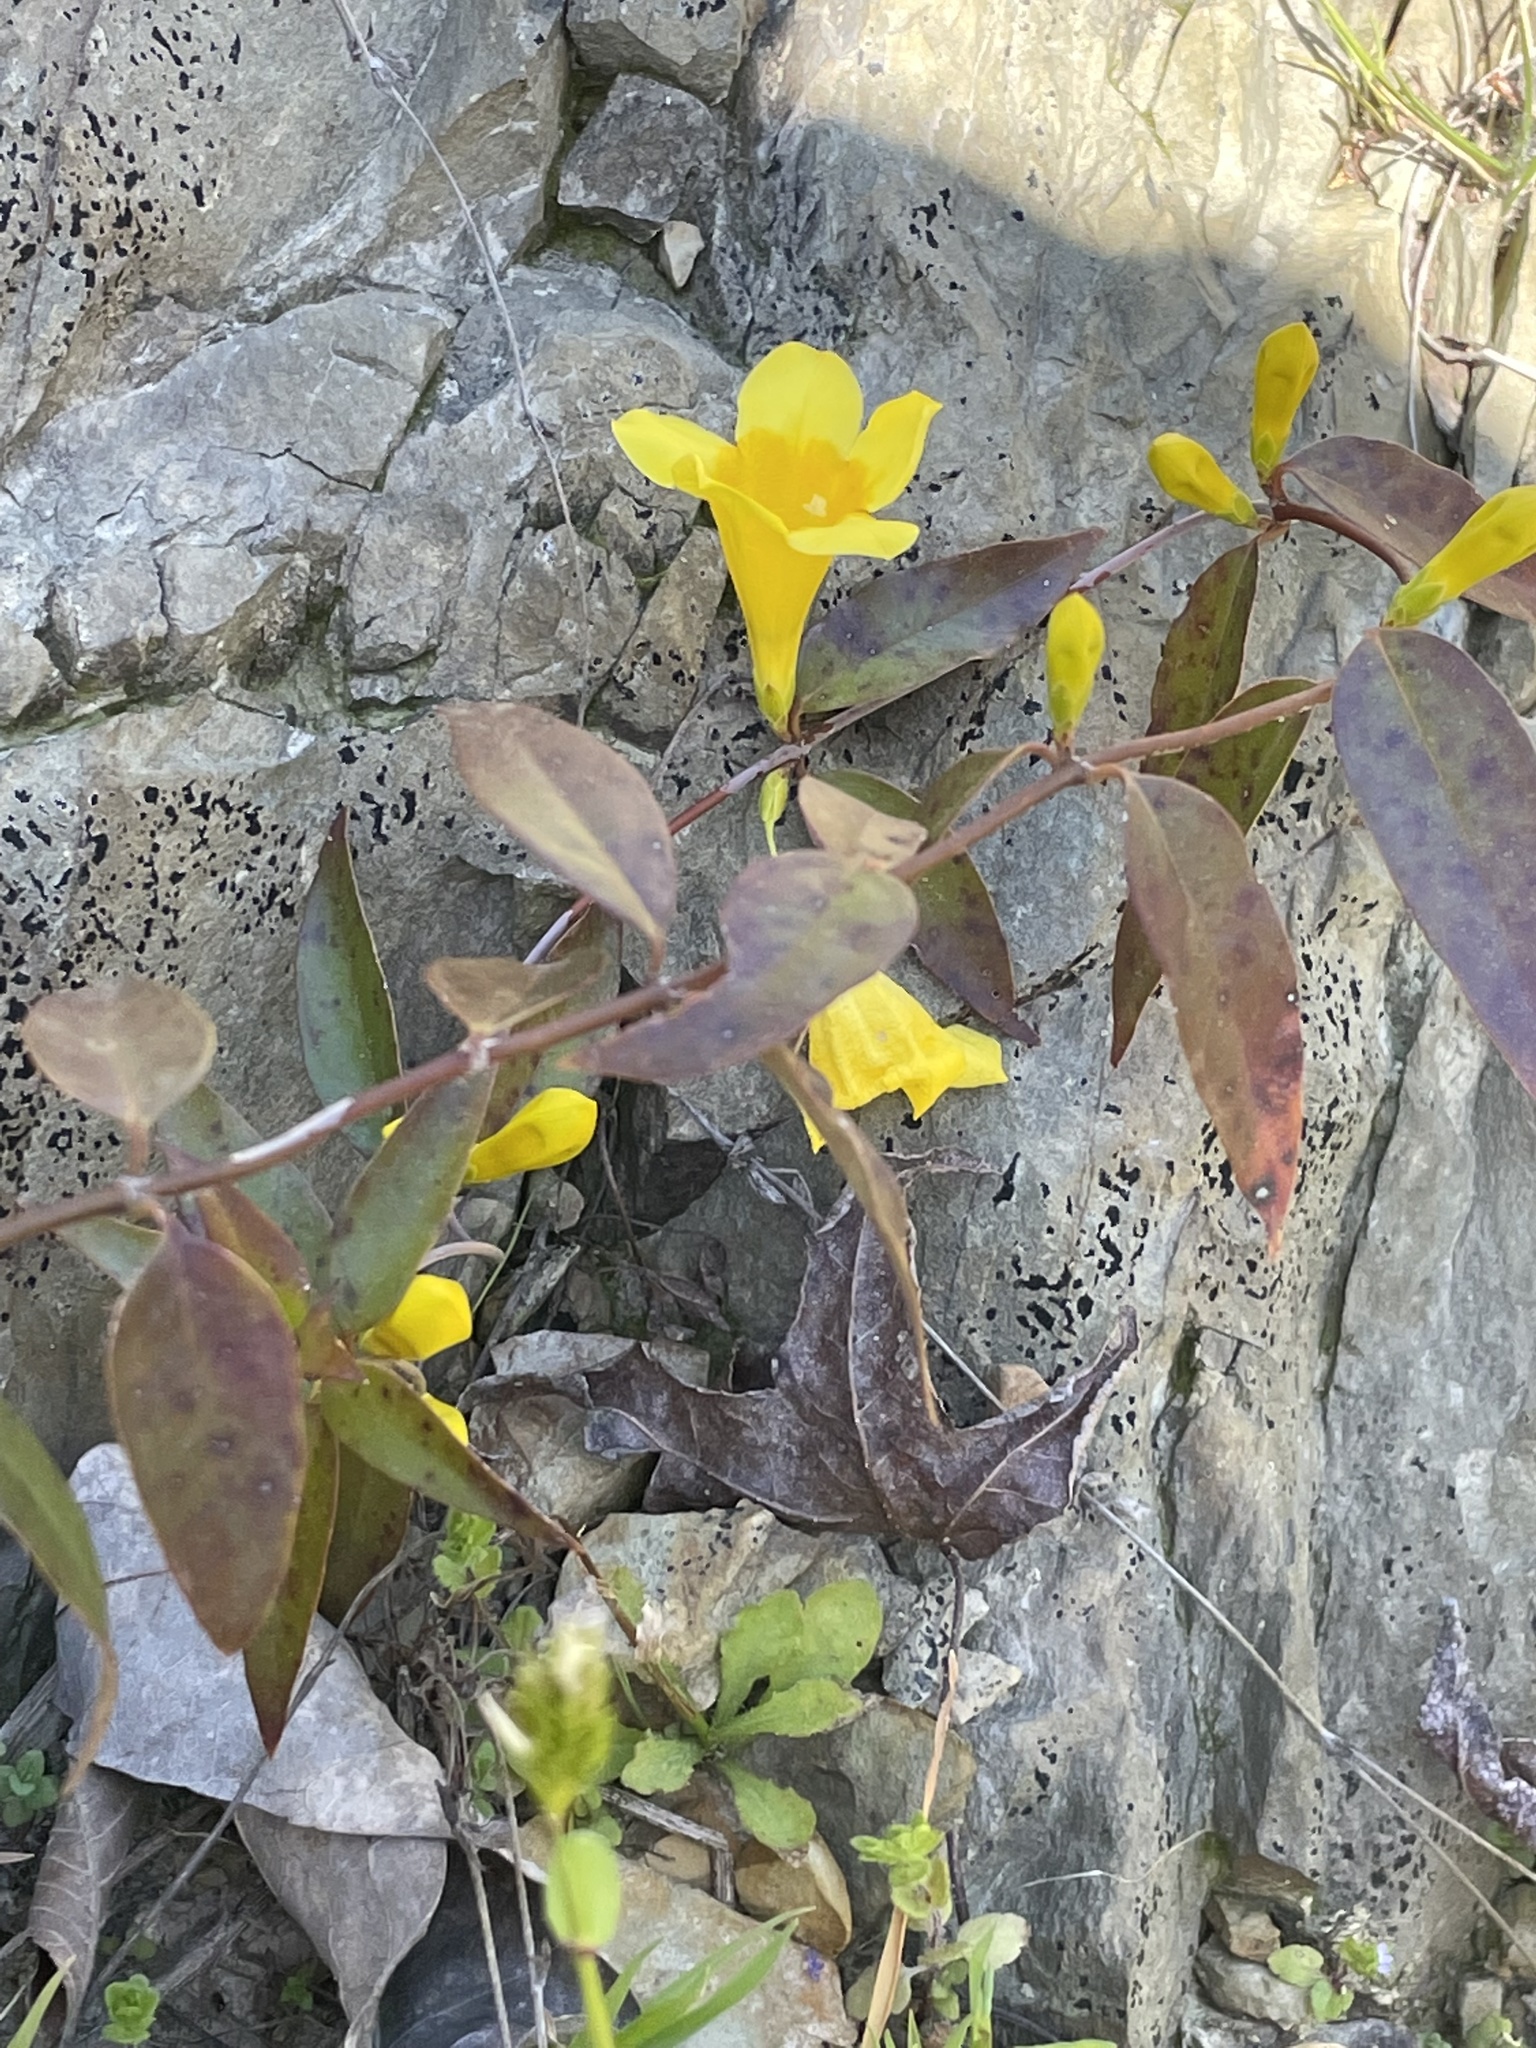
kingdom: Plantae
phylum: Tracheophyta
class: Magnoliopsida
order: Gentianales
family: Gelsemiaceae
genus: Gelsemium
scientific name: Gelsemium sempervirens
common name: Carolina-jasmine
